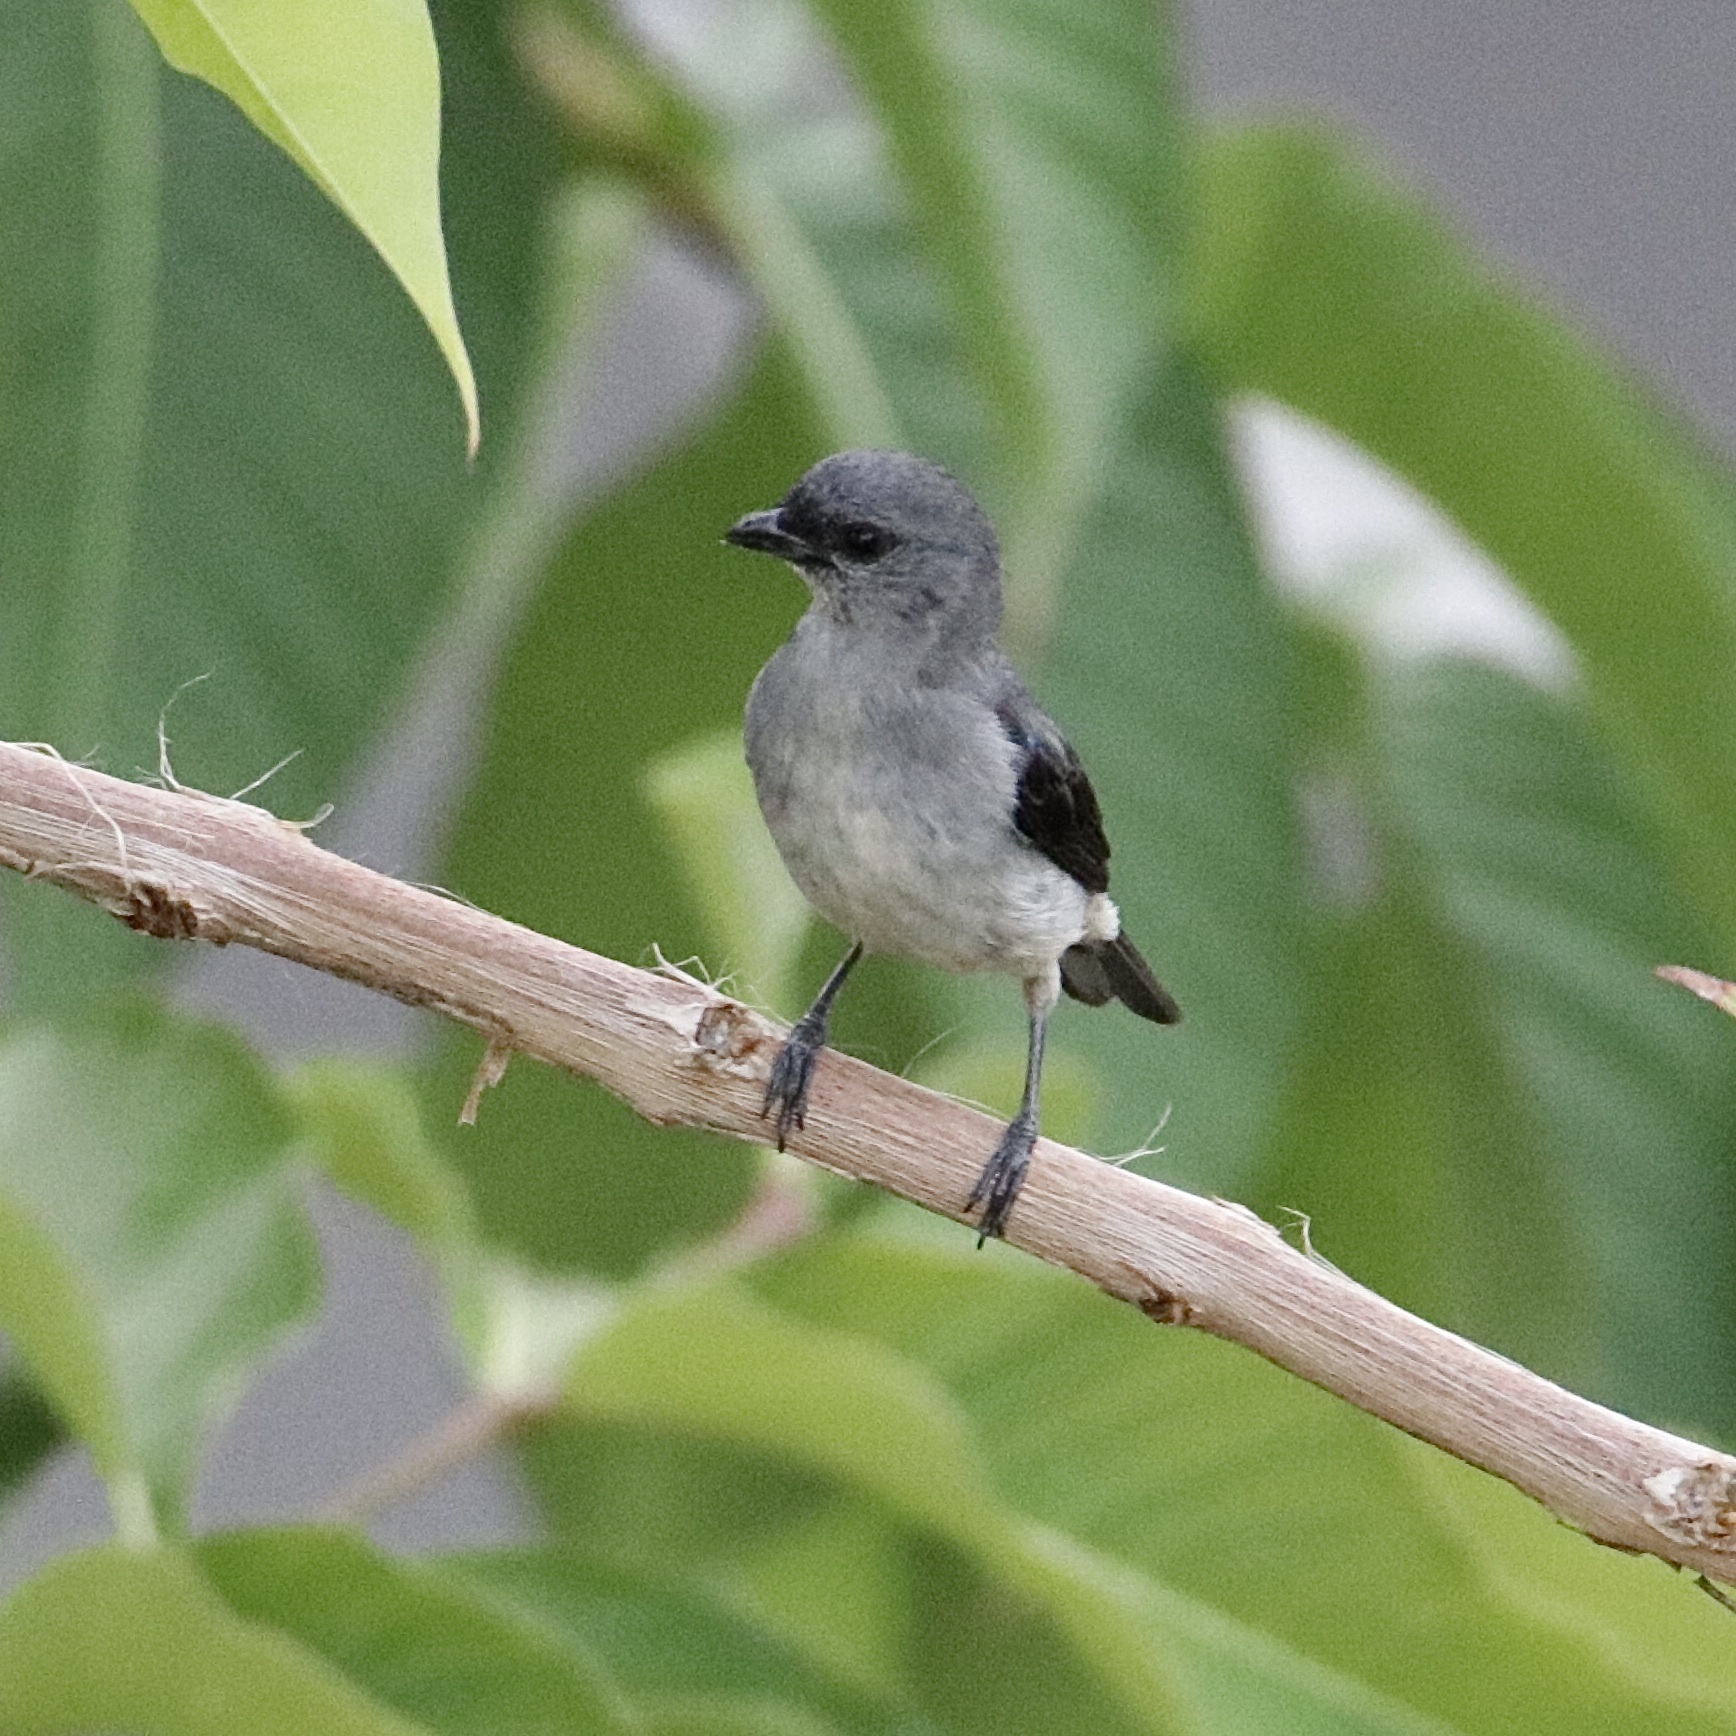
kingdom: Animalia
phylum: Chordata
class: Aves
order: Passeriformes
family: Thraupidae
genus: Tangara
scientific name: Tangara inornata
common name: Plain-colored tanager
